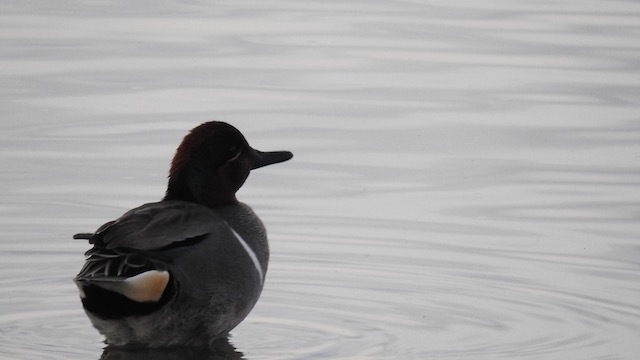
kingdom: Animalia
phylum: Chordata
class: Aves
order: Anseriformes
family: Anatidae
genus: Anas
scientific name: Anas carolinensis
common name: Green-winged teal
